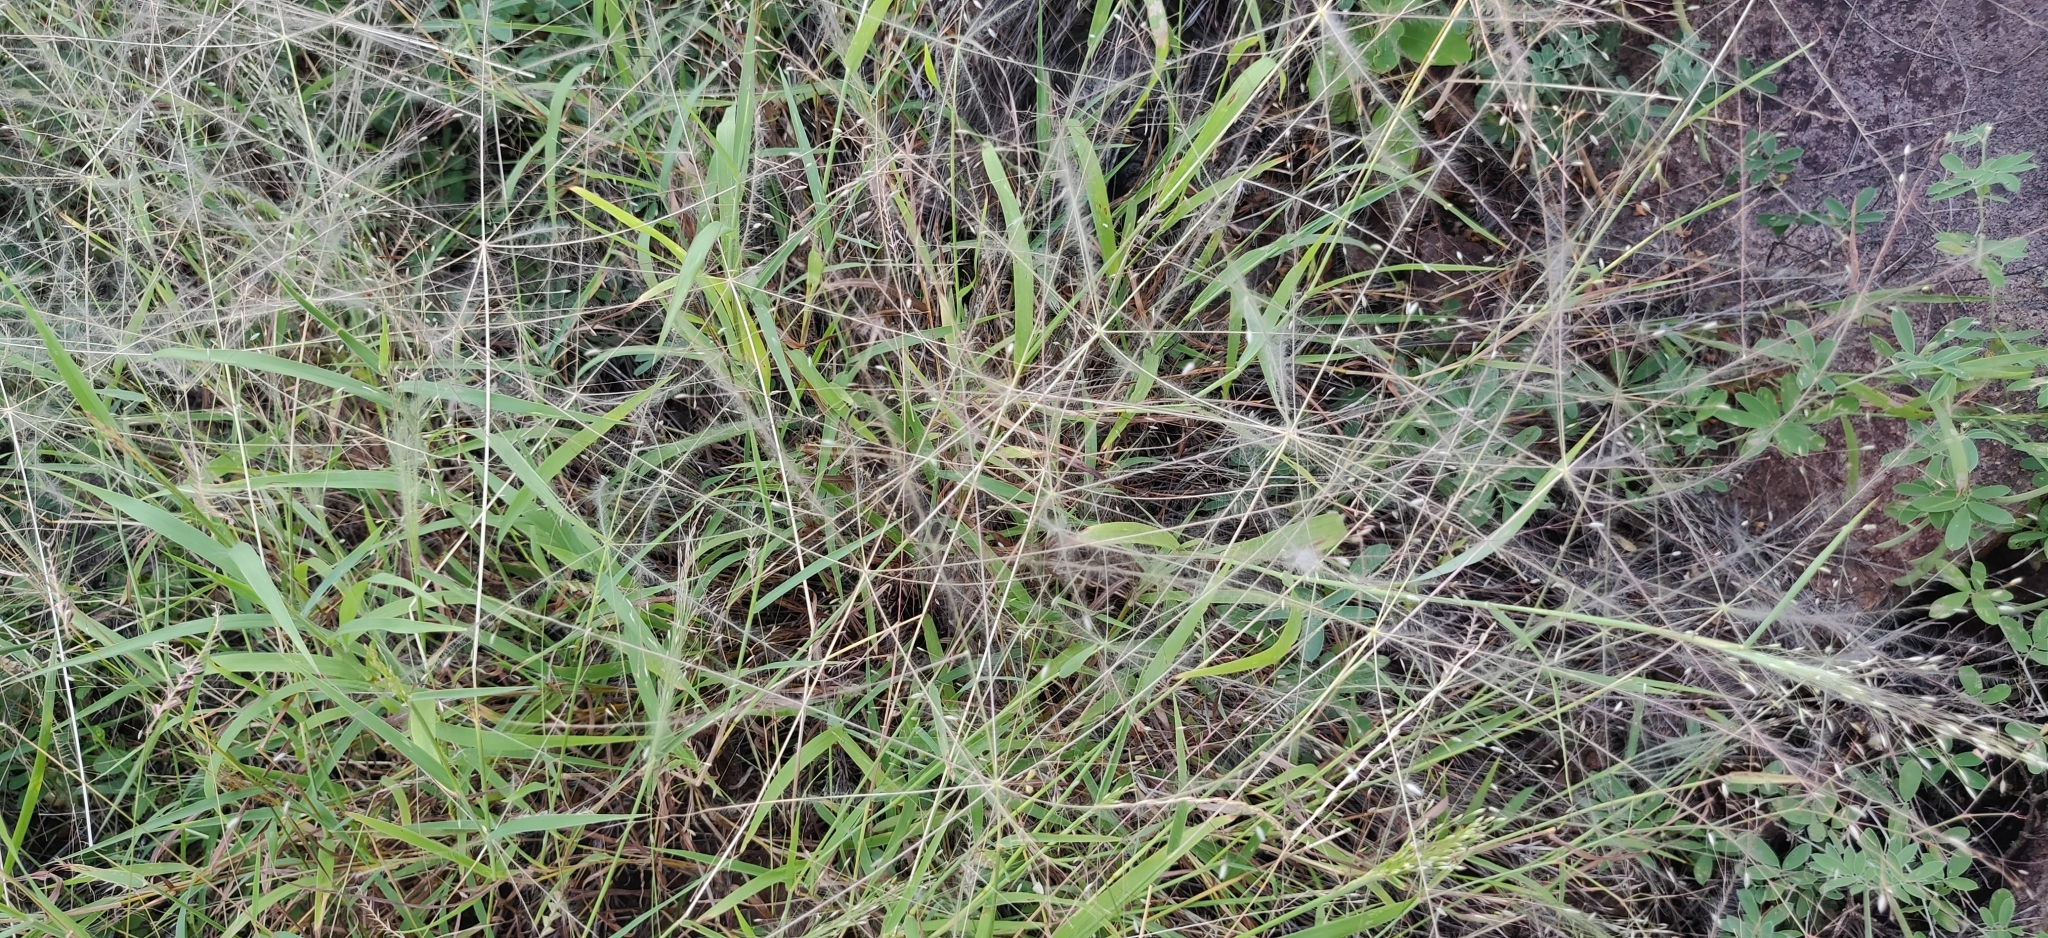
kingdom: Plantae
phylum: Tracheophyta
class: Liliopsida
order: Poales
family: Poaceae
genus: Digitaria
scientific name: Digitaria pennata
